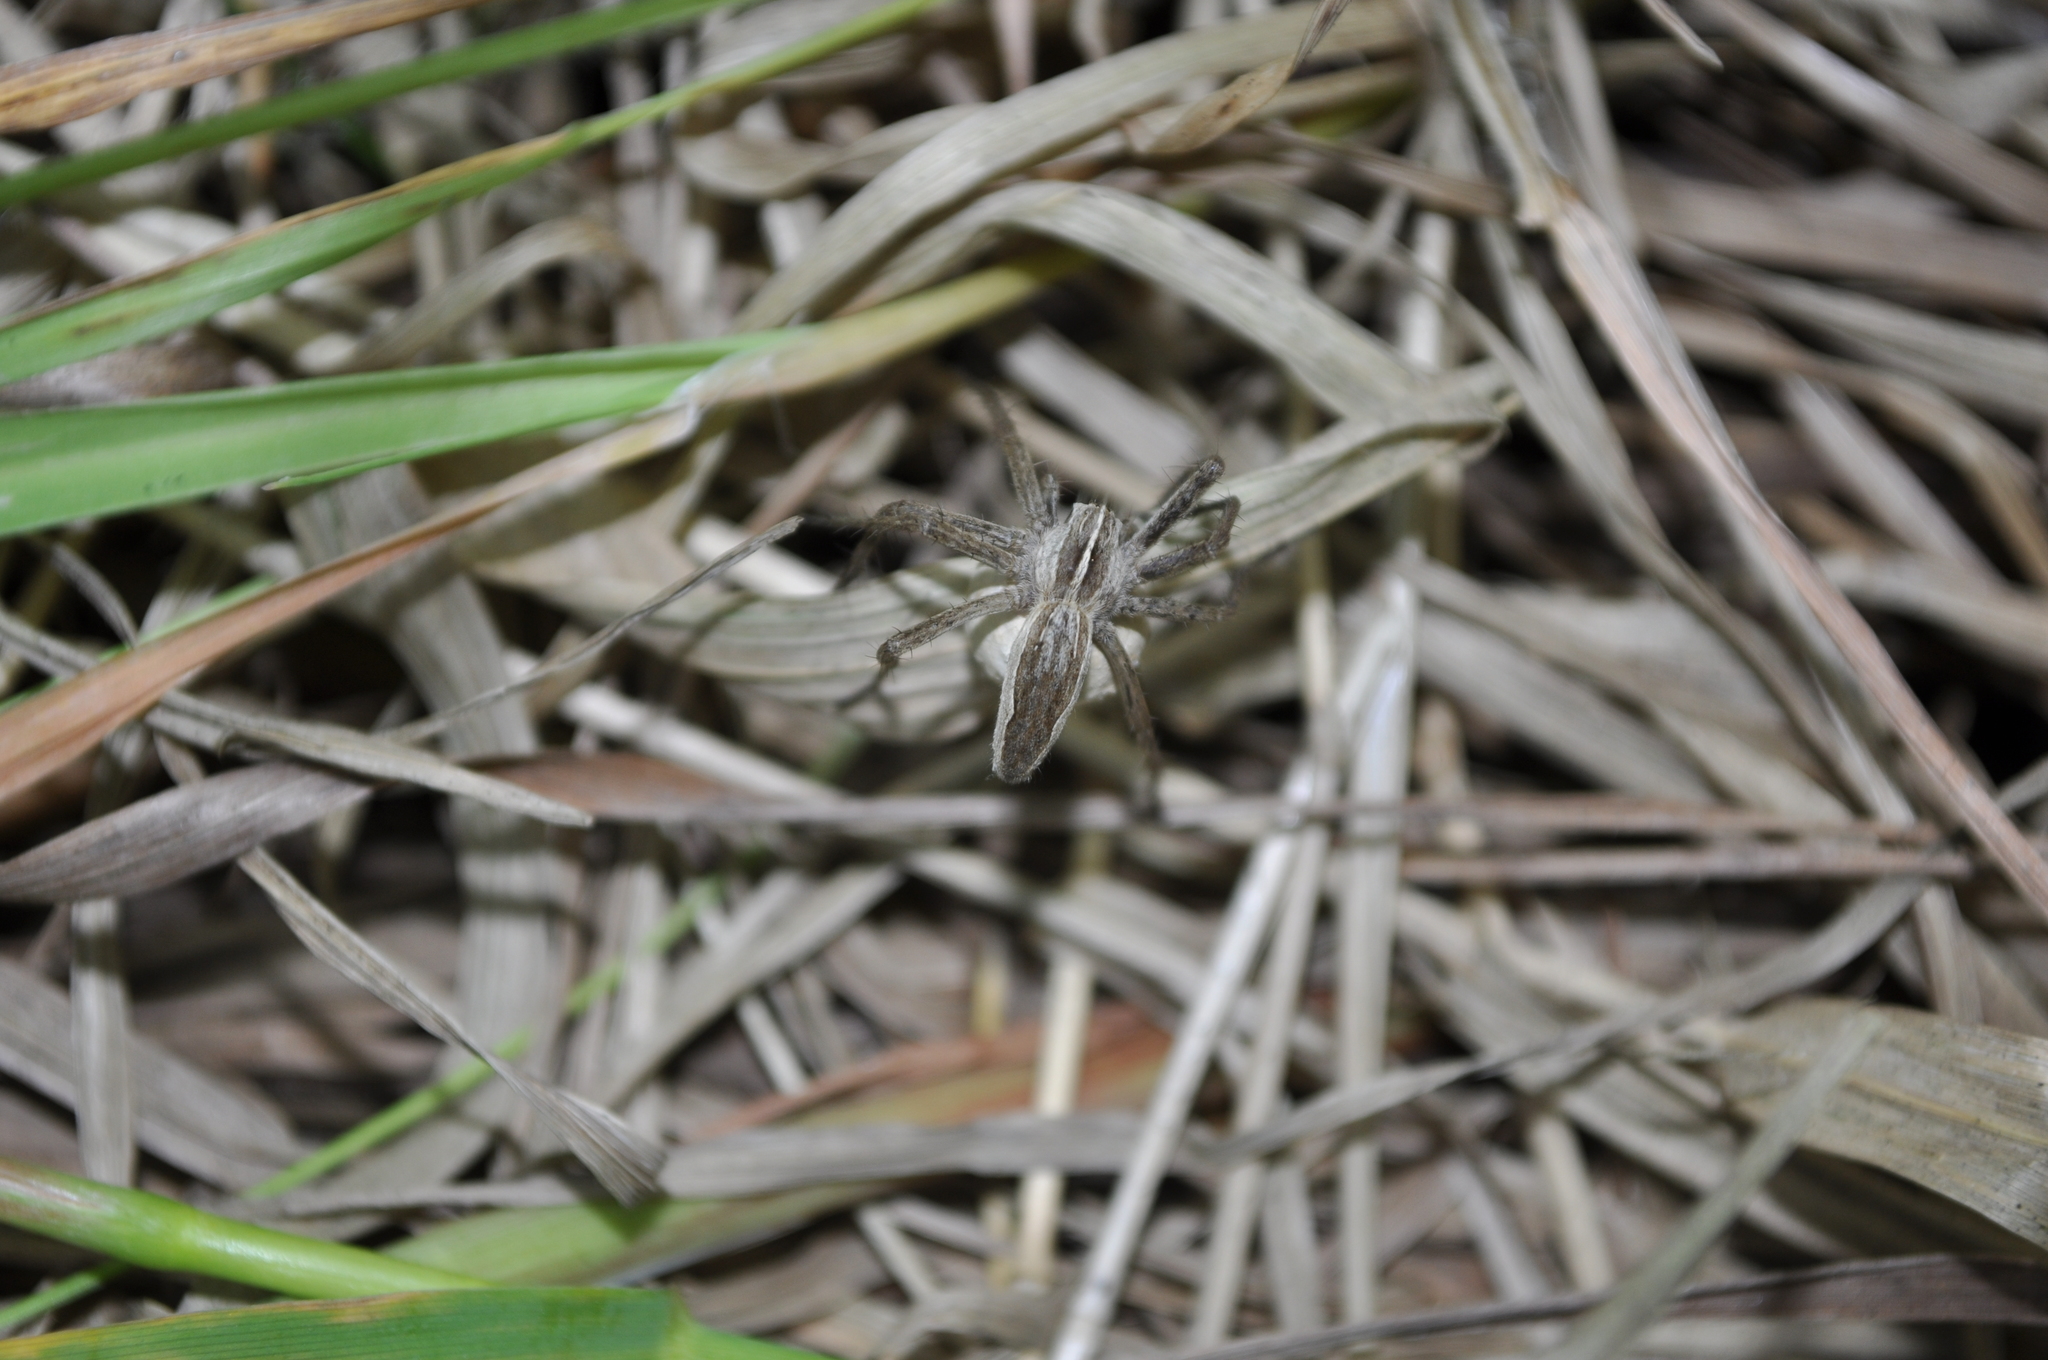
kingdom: Animalia
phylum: Arthropoda
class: Arachnida
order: Araneae
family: Pisauridae
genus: Pisaura
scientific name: Pisaura mirabilis
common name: Tent spider
